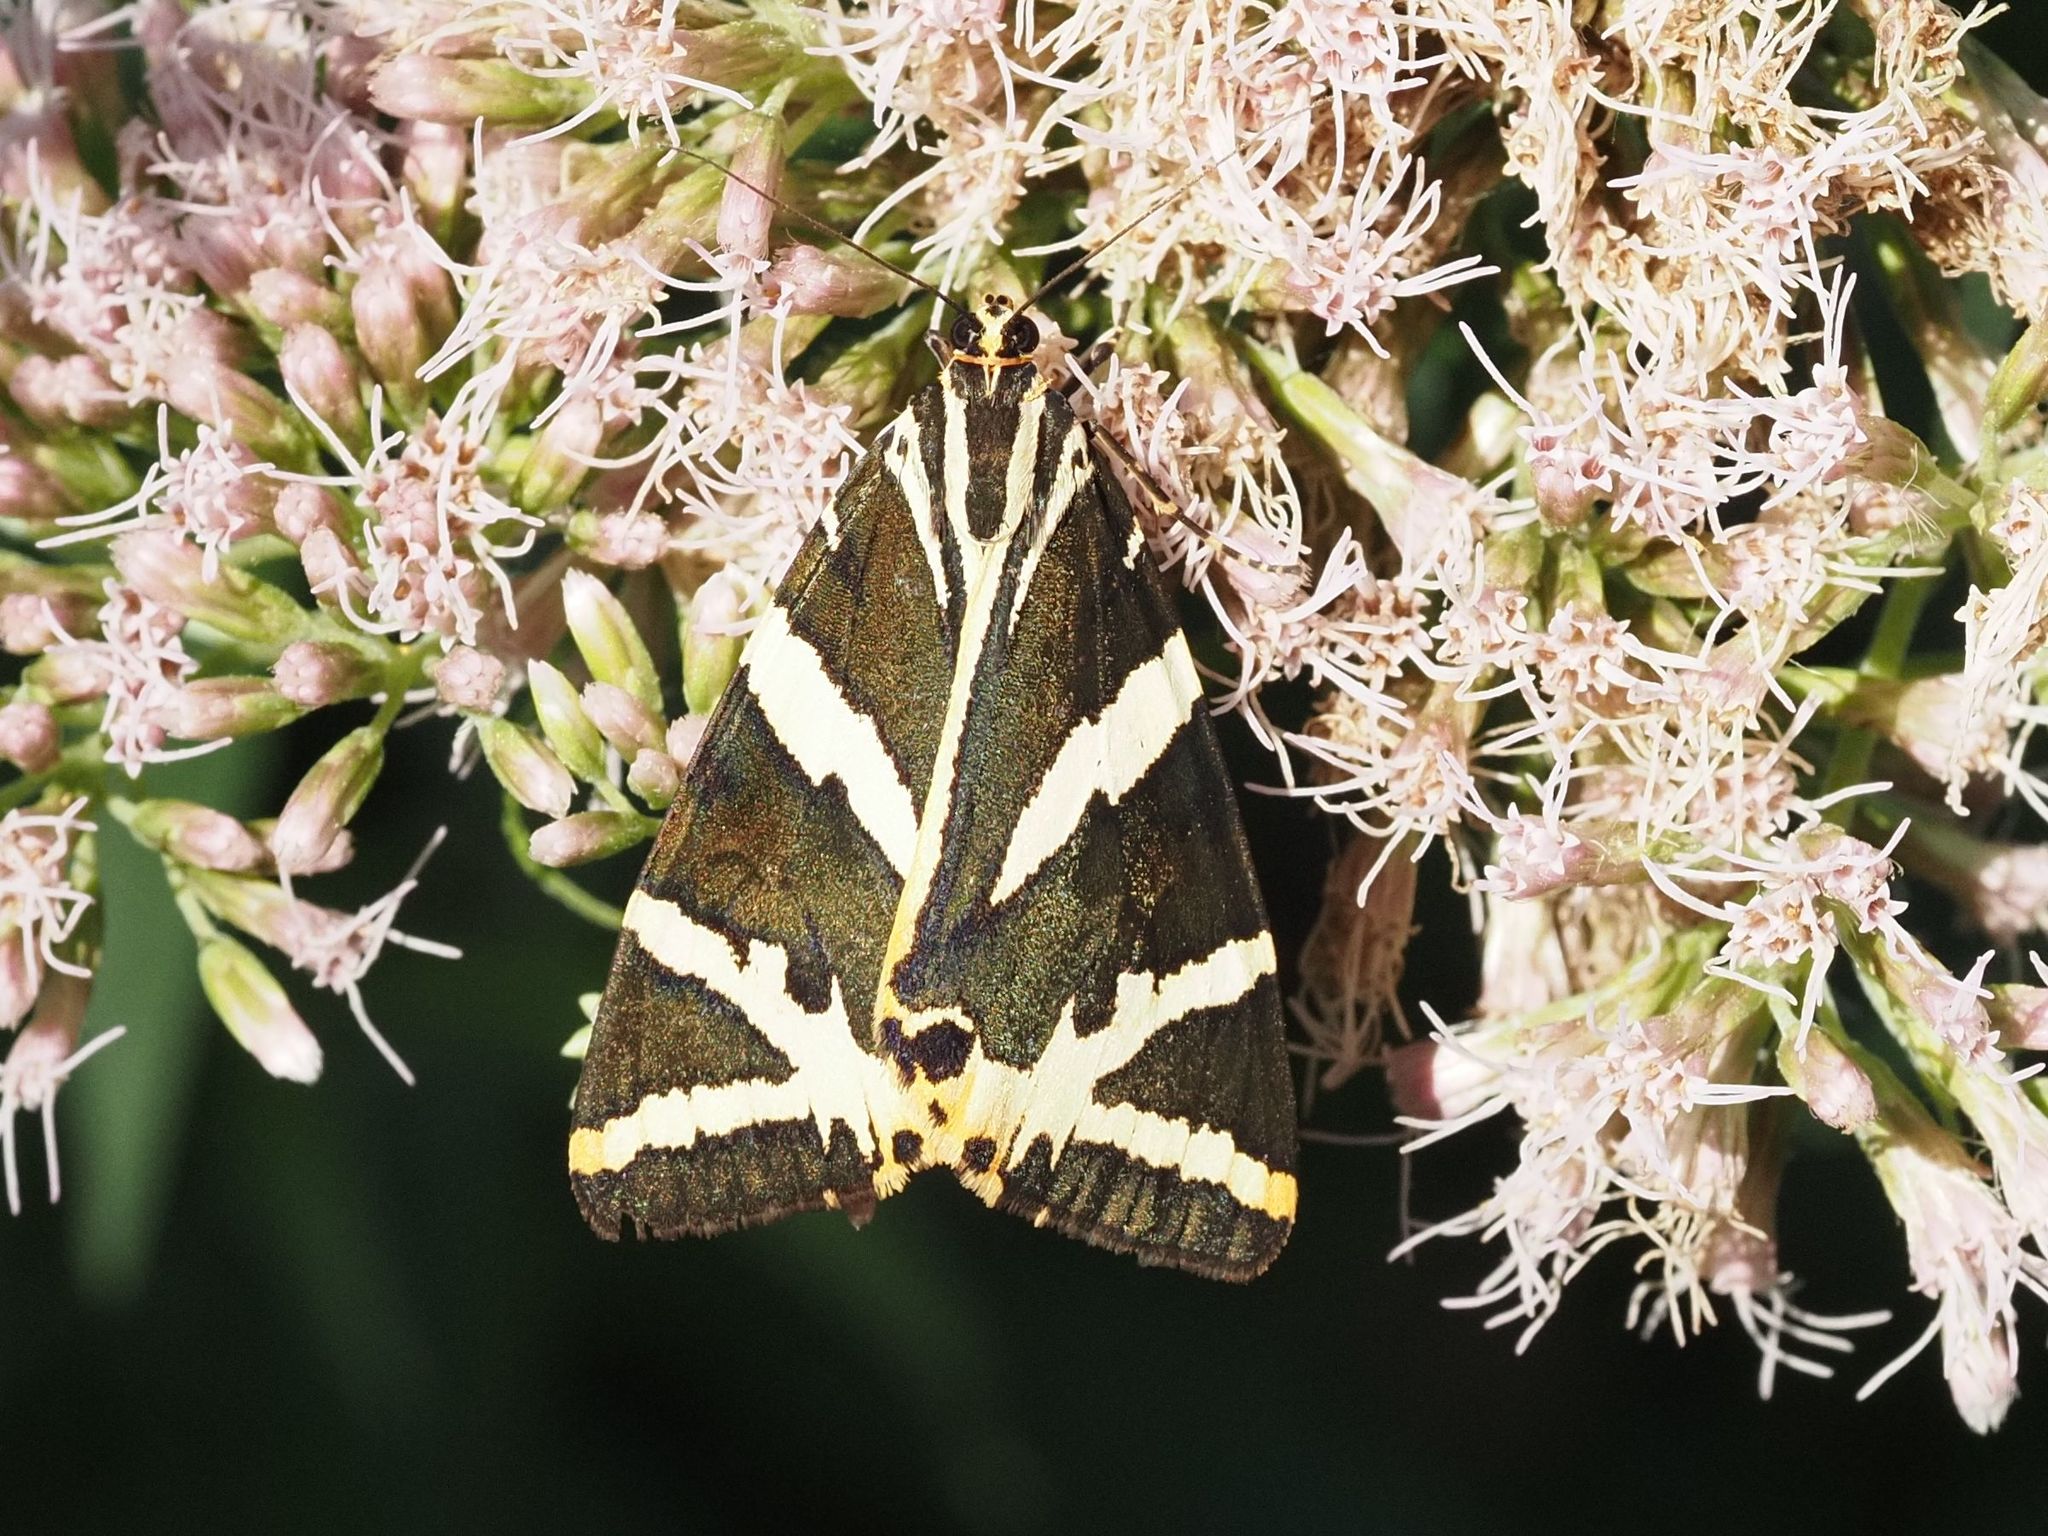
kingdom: Animalia
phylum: Arthropoda
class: Insecta
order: Lepidoptera
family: Erebidae
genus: Euplagia
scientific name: Euplagia quadripunctaria
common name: Jersey tiger
